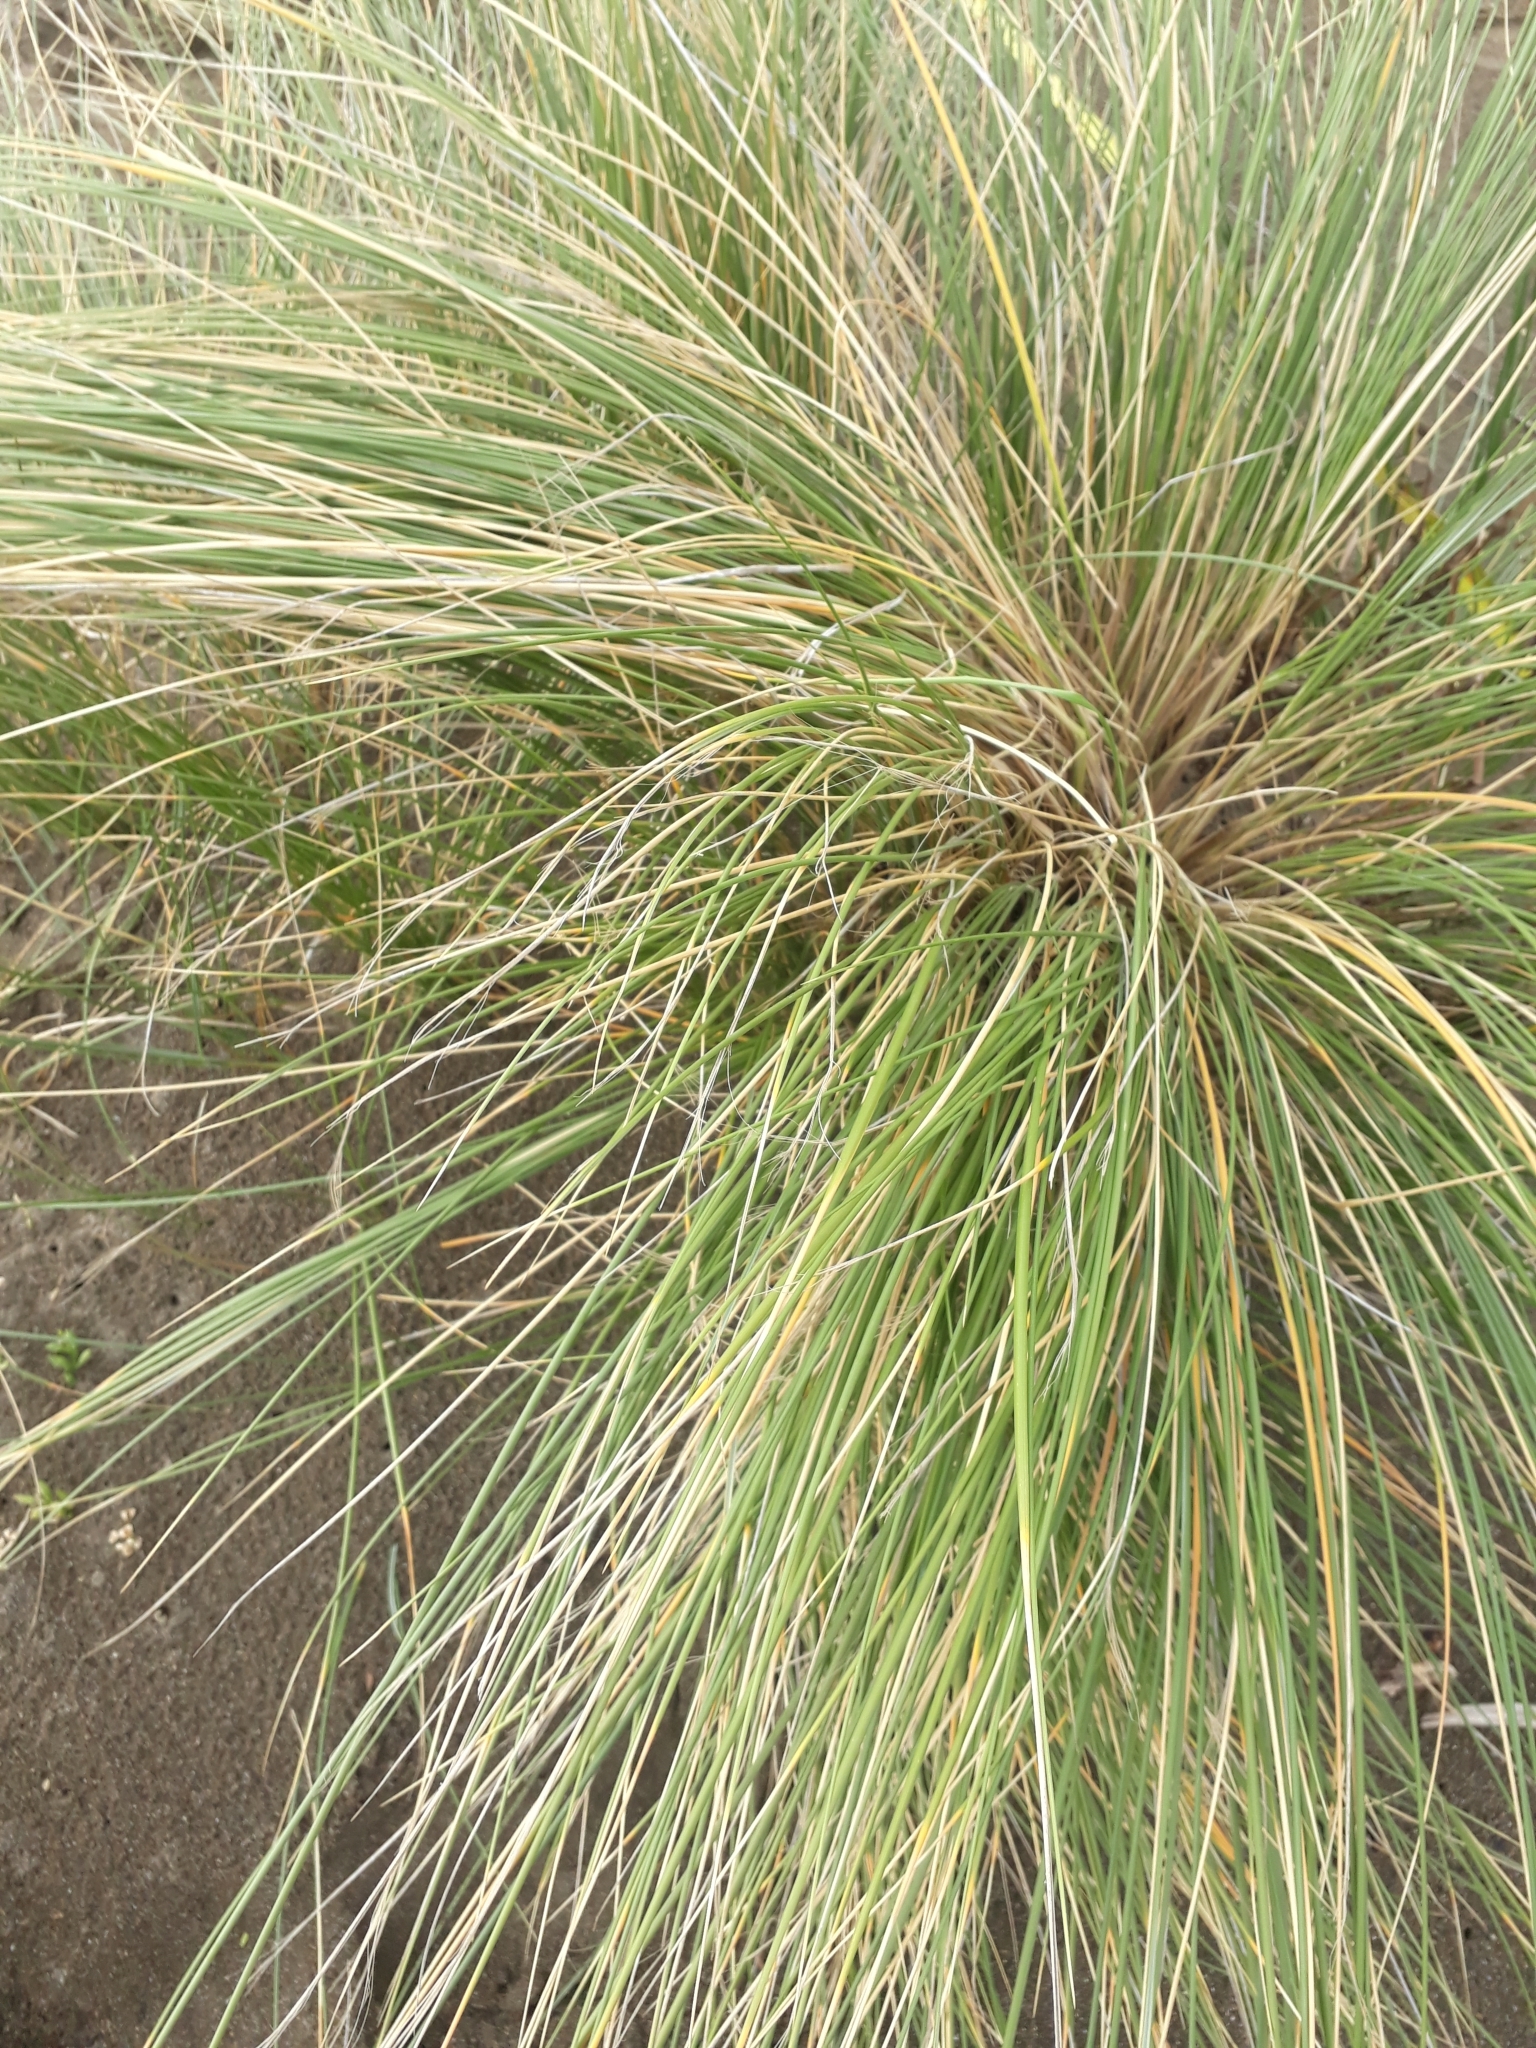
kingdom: Plantae
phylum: Tracheophyta
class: Liliopsida
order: Poales
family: Poaceae
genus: Calamagrostis
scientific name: Calamagrostis arenaria
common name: European beachgrass
